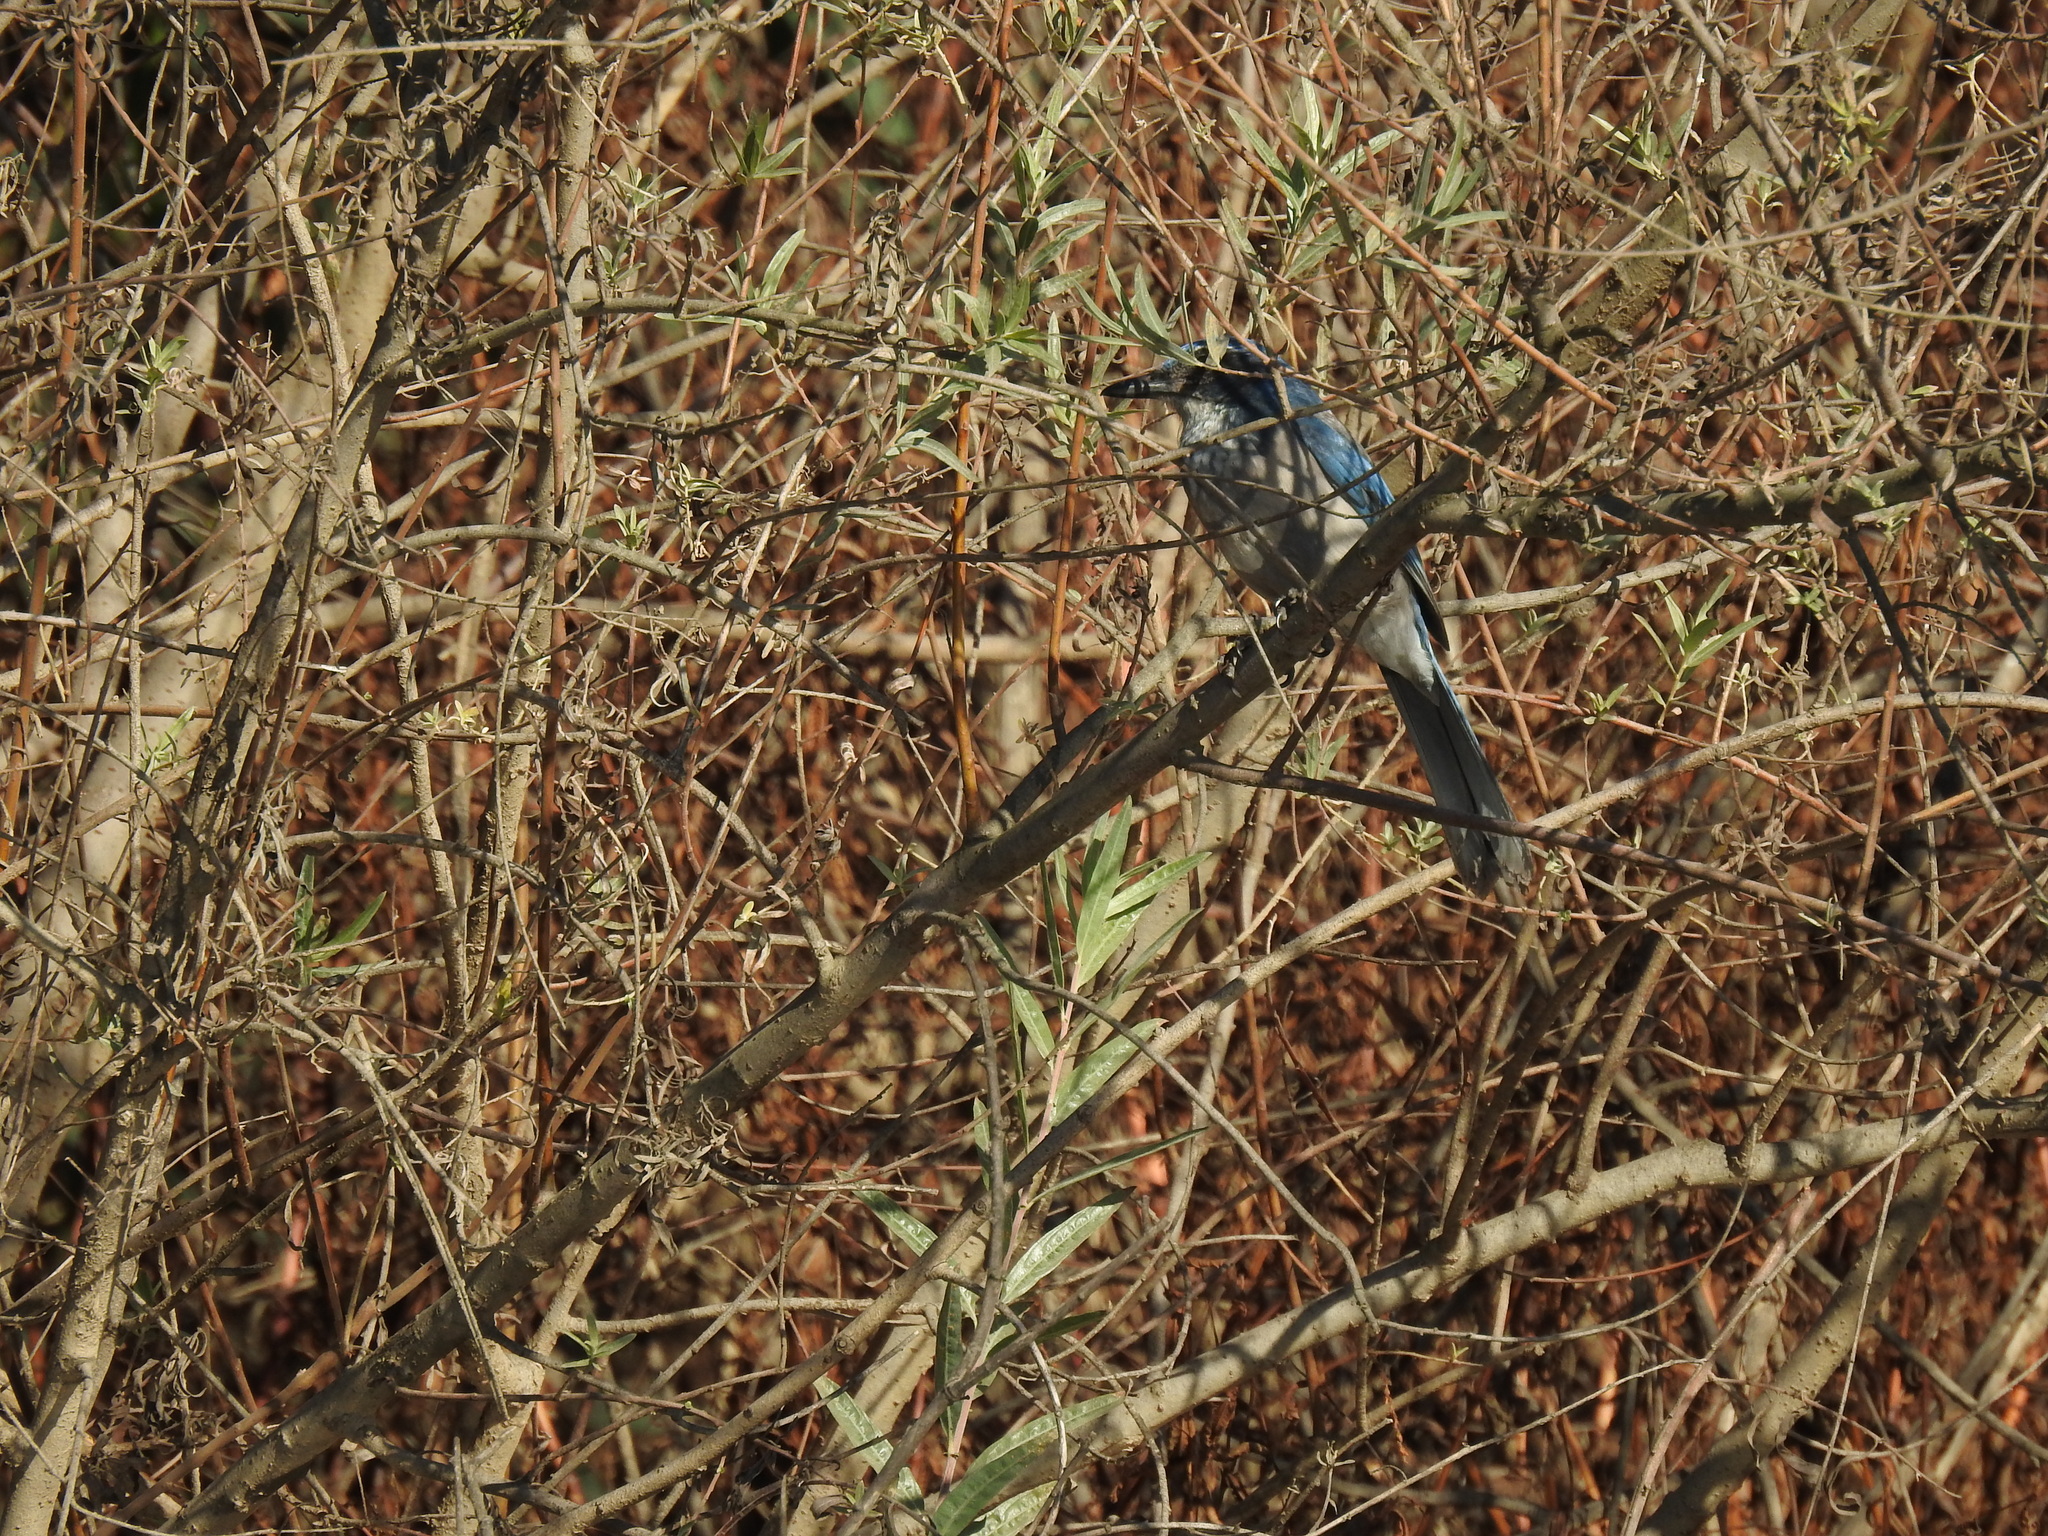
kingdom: Animalia
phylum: Chordata
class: Aves
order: Passeriformes
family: Corvidae
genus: Aphelocoma
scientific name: Aphelocoma californica
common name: California scrub-jay
